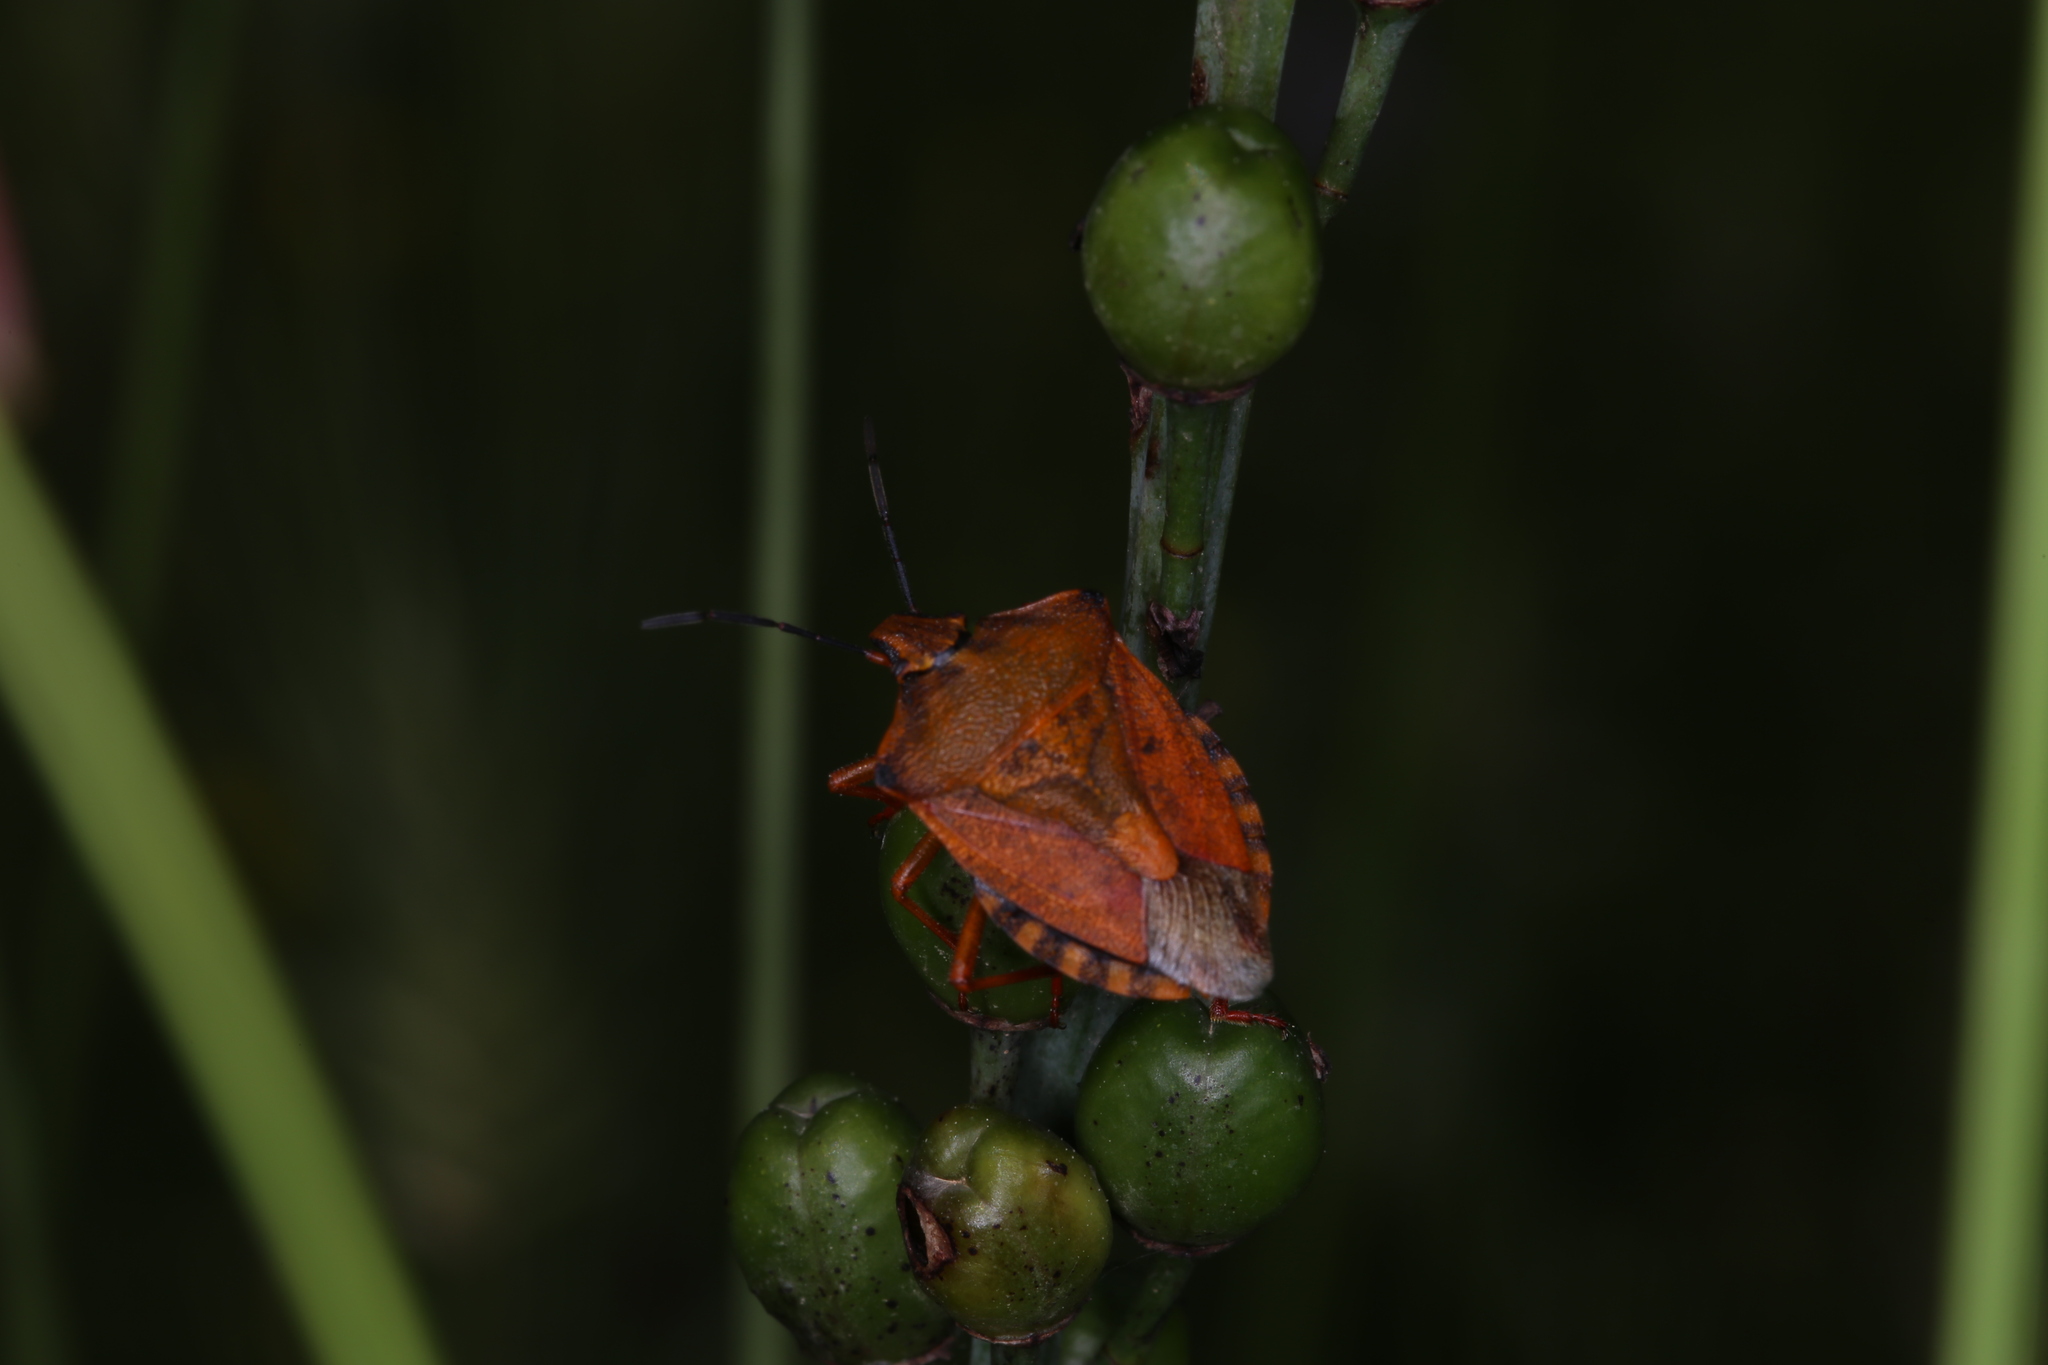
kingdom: Animalia
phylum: Arthropoda
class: Insecta
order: Hemiptera
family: Pentatomidae
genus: Carpocoris
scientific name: Carpocoris mediterraneus
